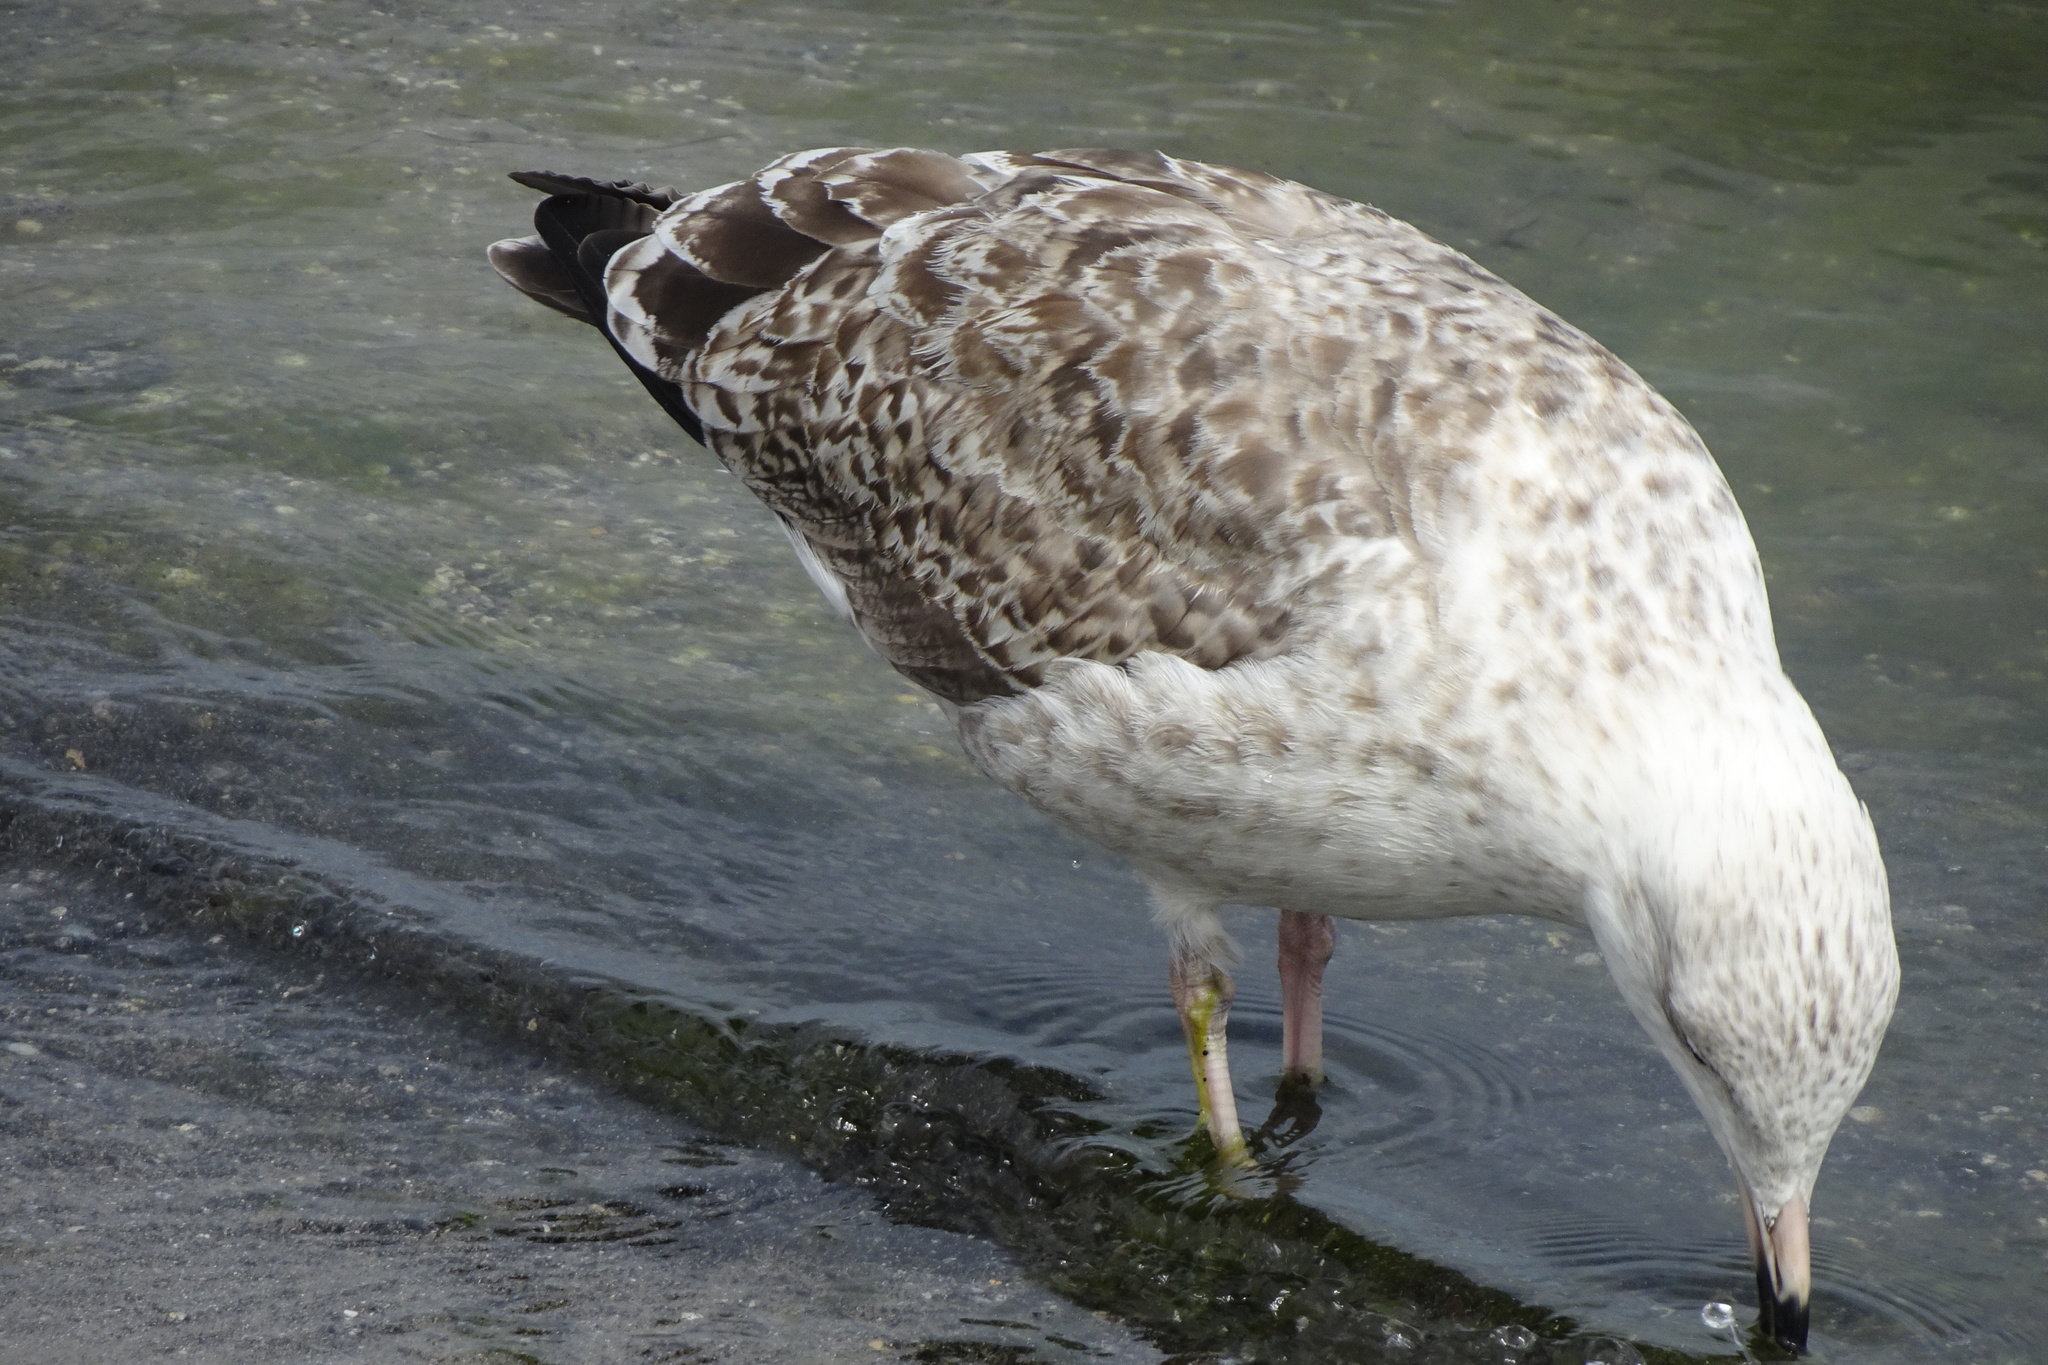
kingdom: Animalia
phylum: Chordata
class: Aves
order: Charadriiformes
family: Laridae
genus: Larus
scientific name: Larus argentatus
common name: Herring gull
